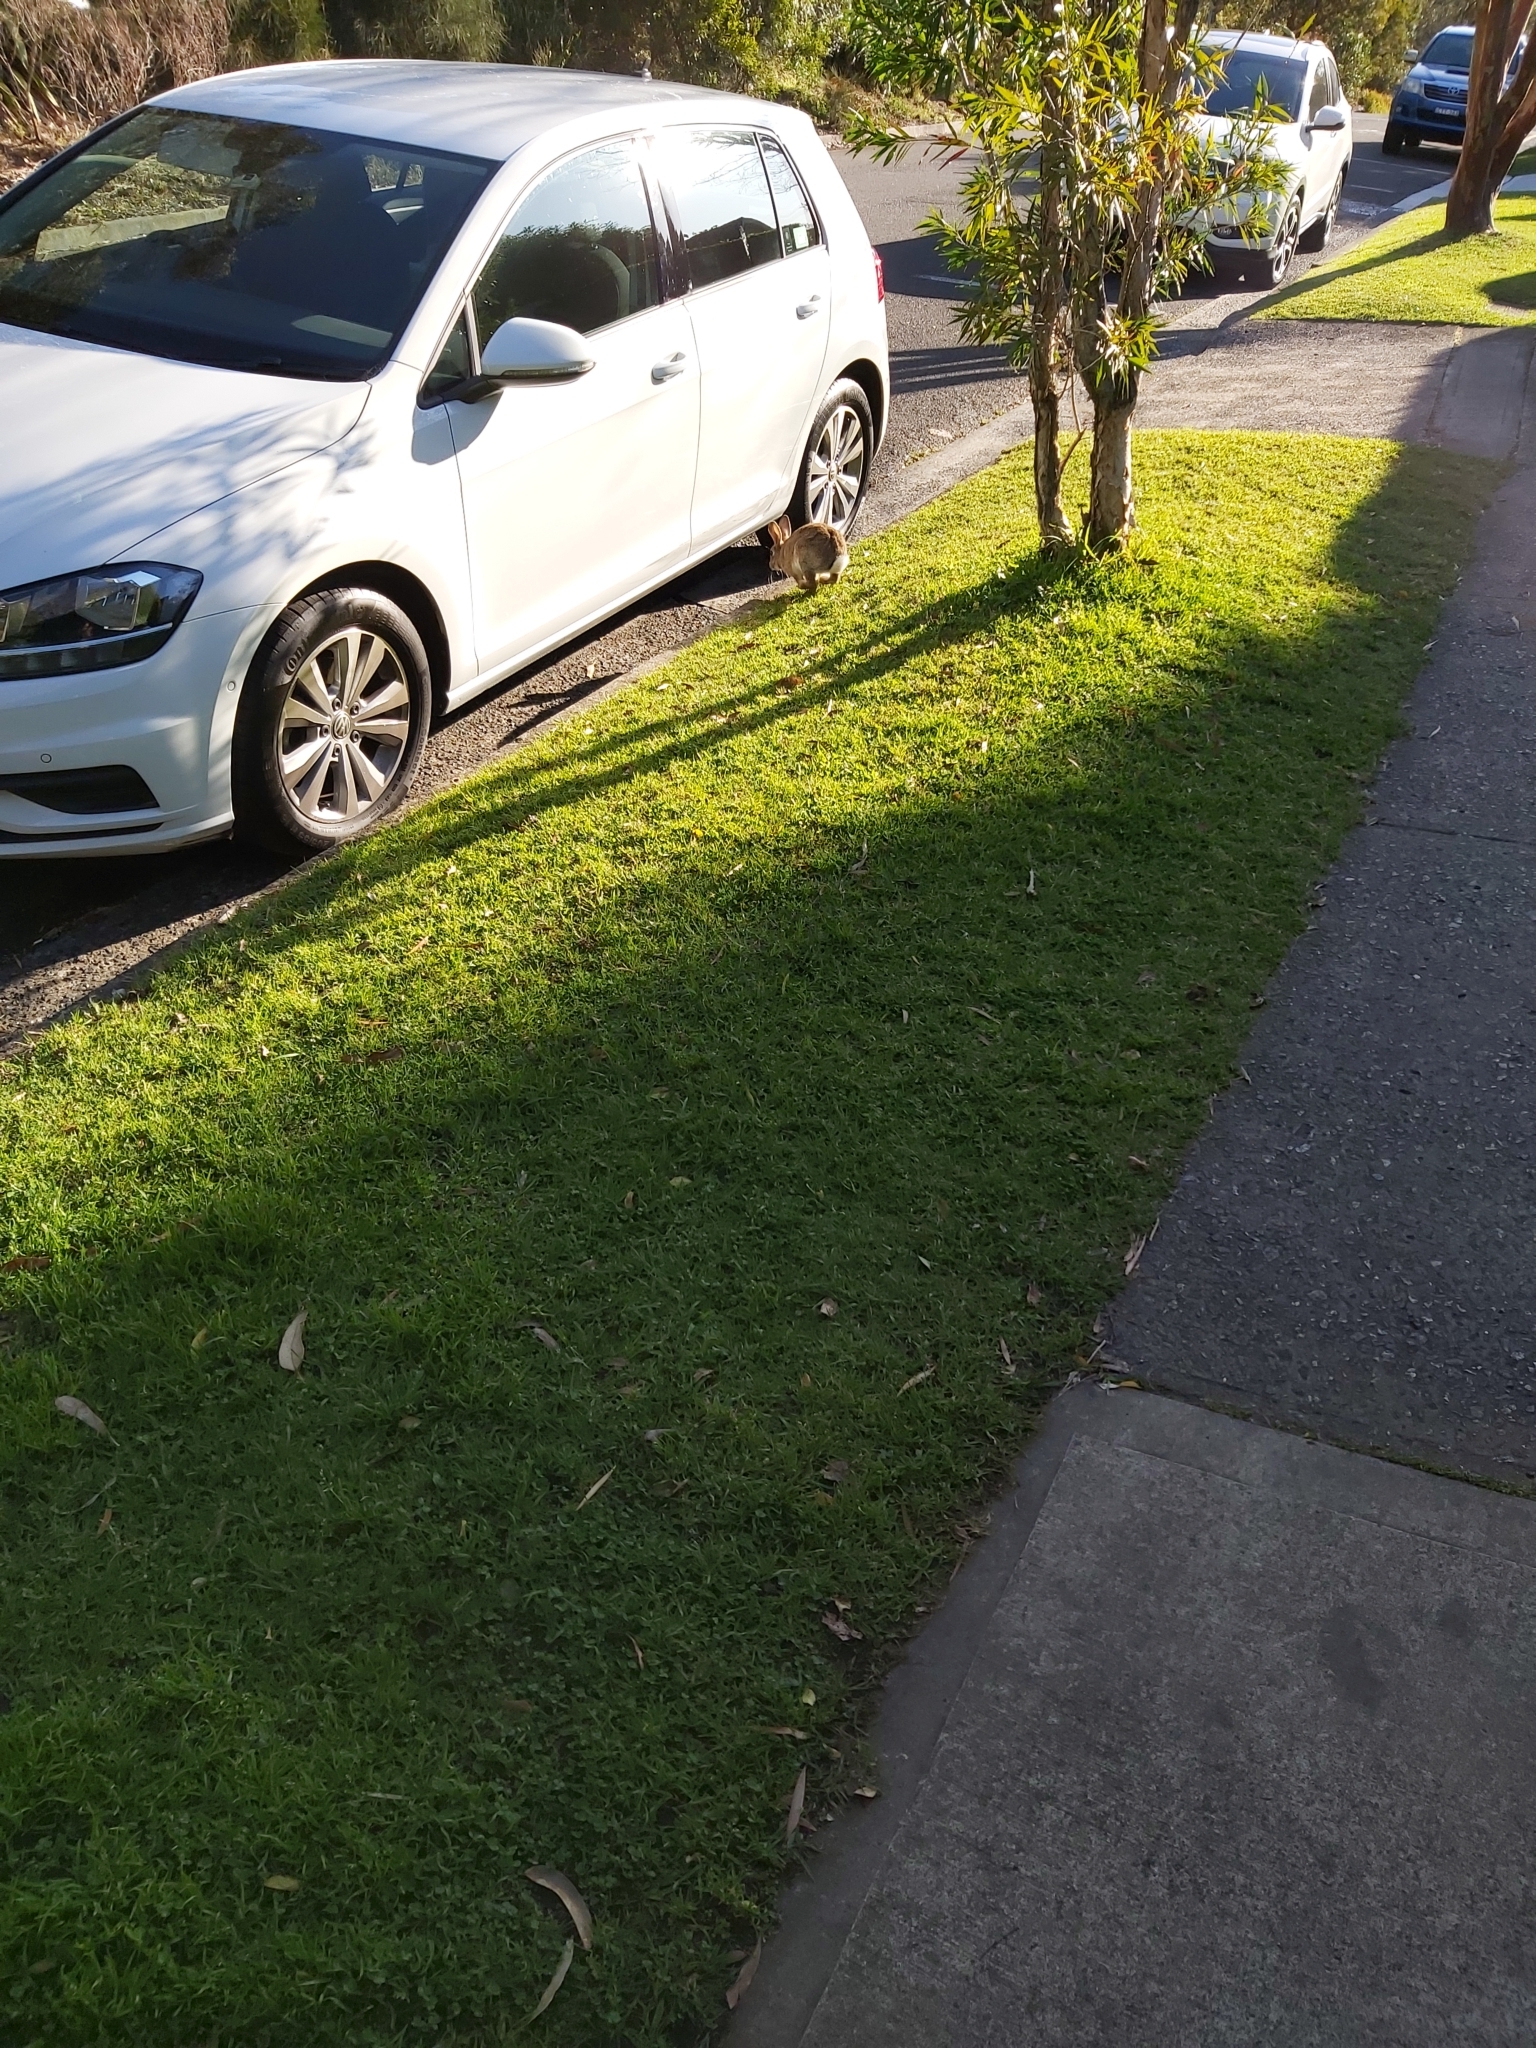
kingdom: Animalia
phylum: Chordata
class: Mammalia
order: Lagomorpha
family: Leporidae
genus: Oryctolagus
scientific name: Oryctolagus cuniculus
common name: European rabbit
